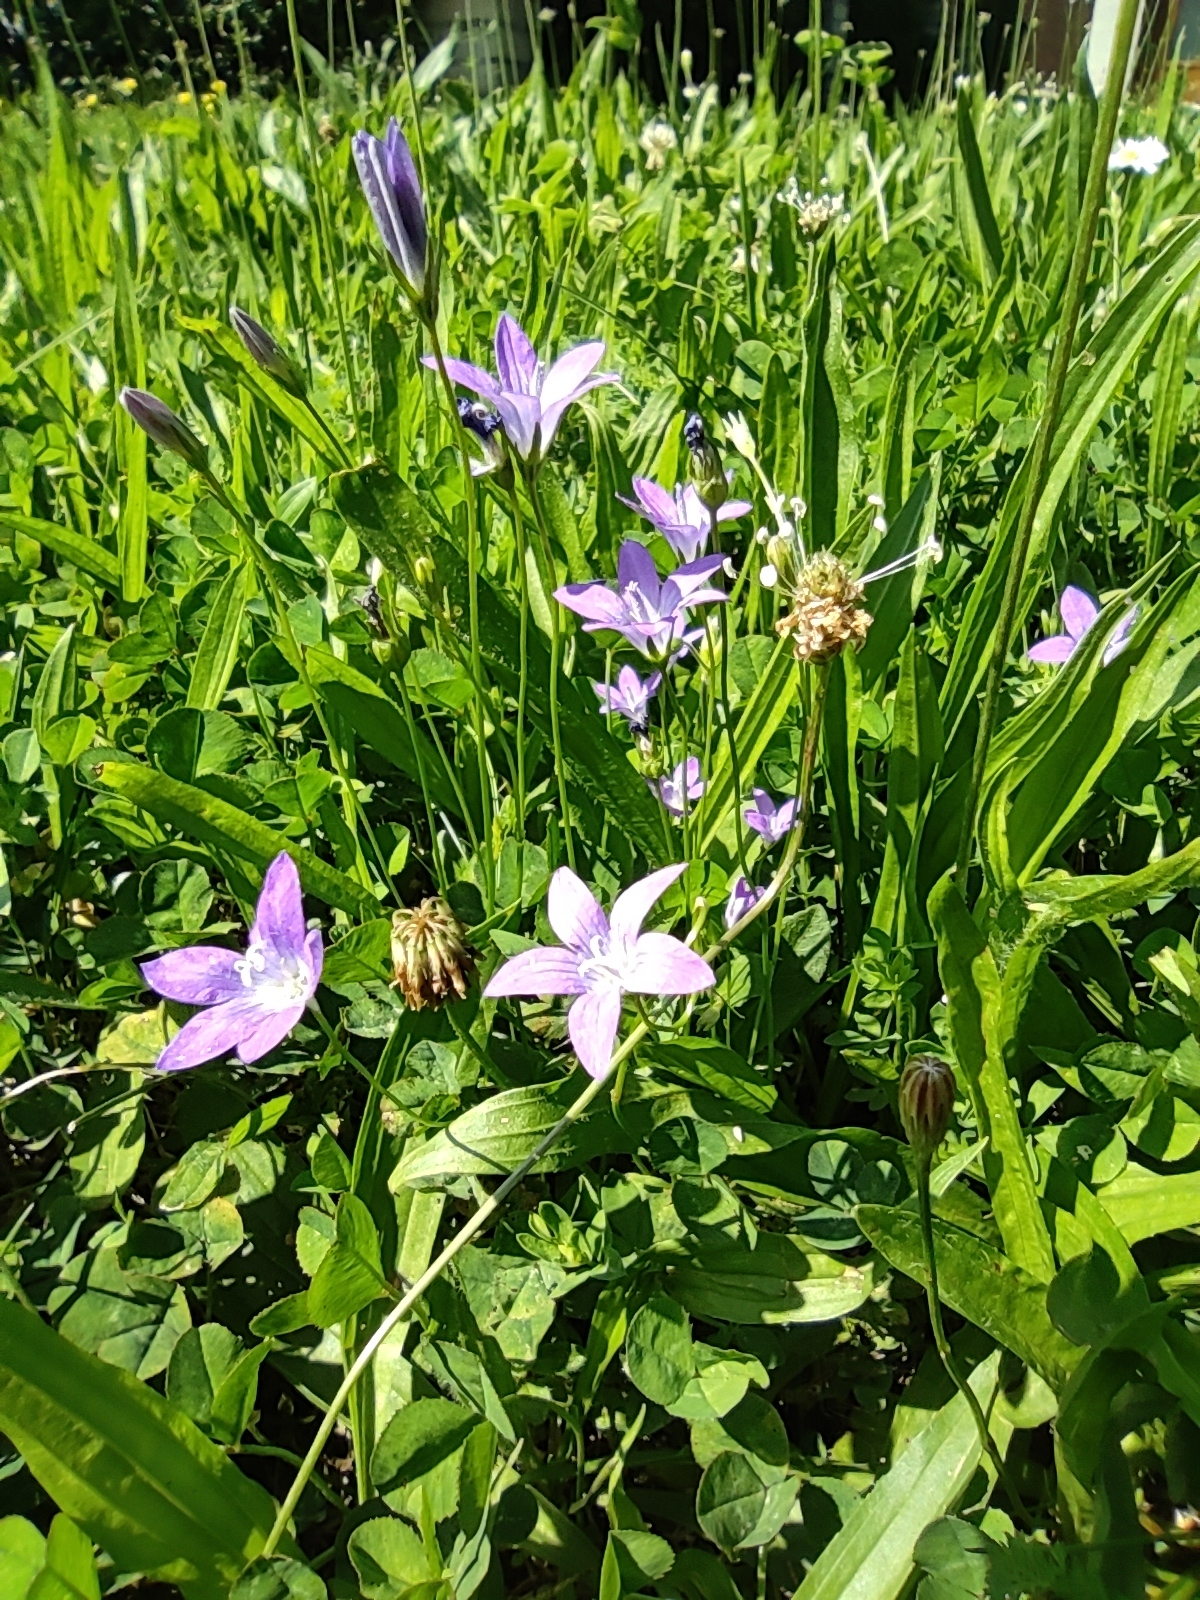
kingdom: Plantae
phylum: Tracheophyta
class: Magnoliopsida
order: Asterales
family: Campanulaceae
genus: Campanula
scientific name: Campanula patula
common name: Spreading bellflower
